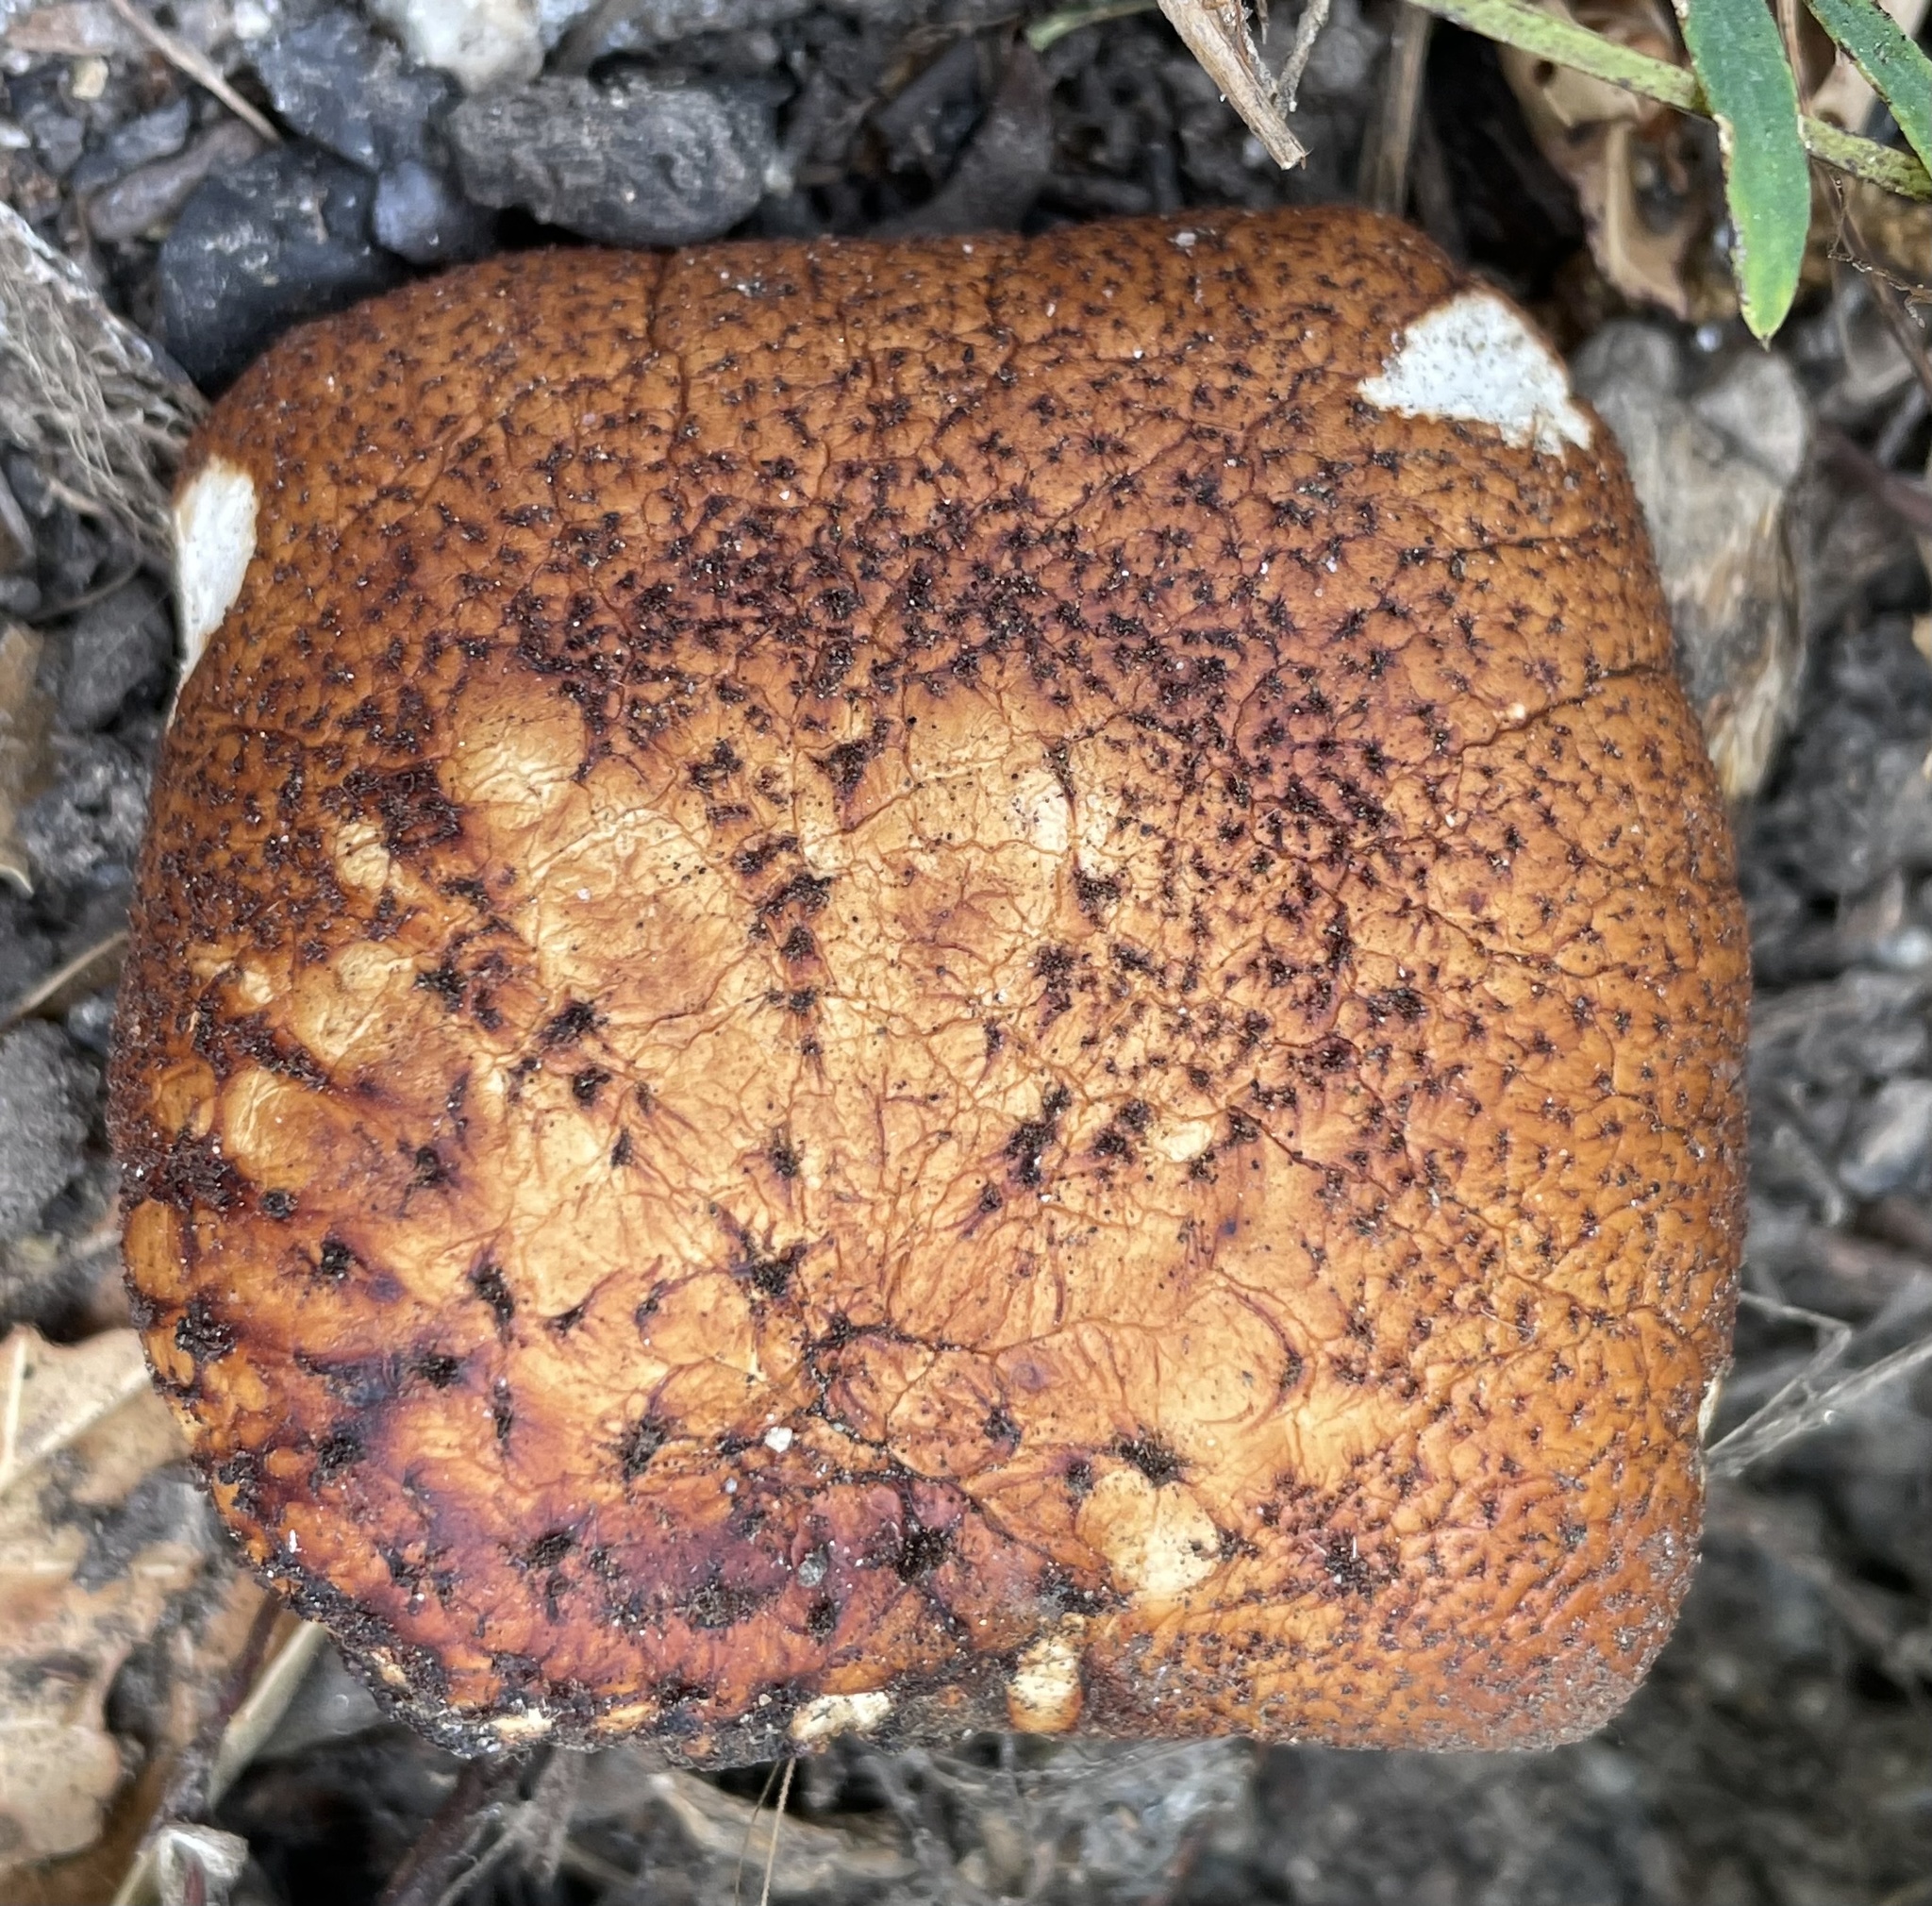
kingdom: Fungi
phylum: Basidiomycota
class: Agaricomycetes
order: Polyporales
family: Polyporaceae
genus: Polyporus
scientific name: Polyporus tuberaster
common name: Tuberous polypore
